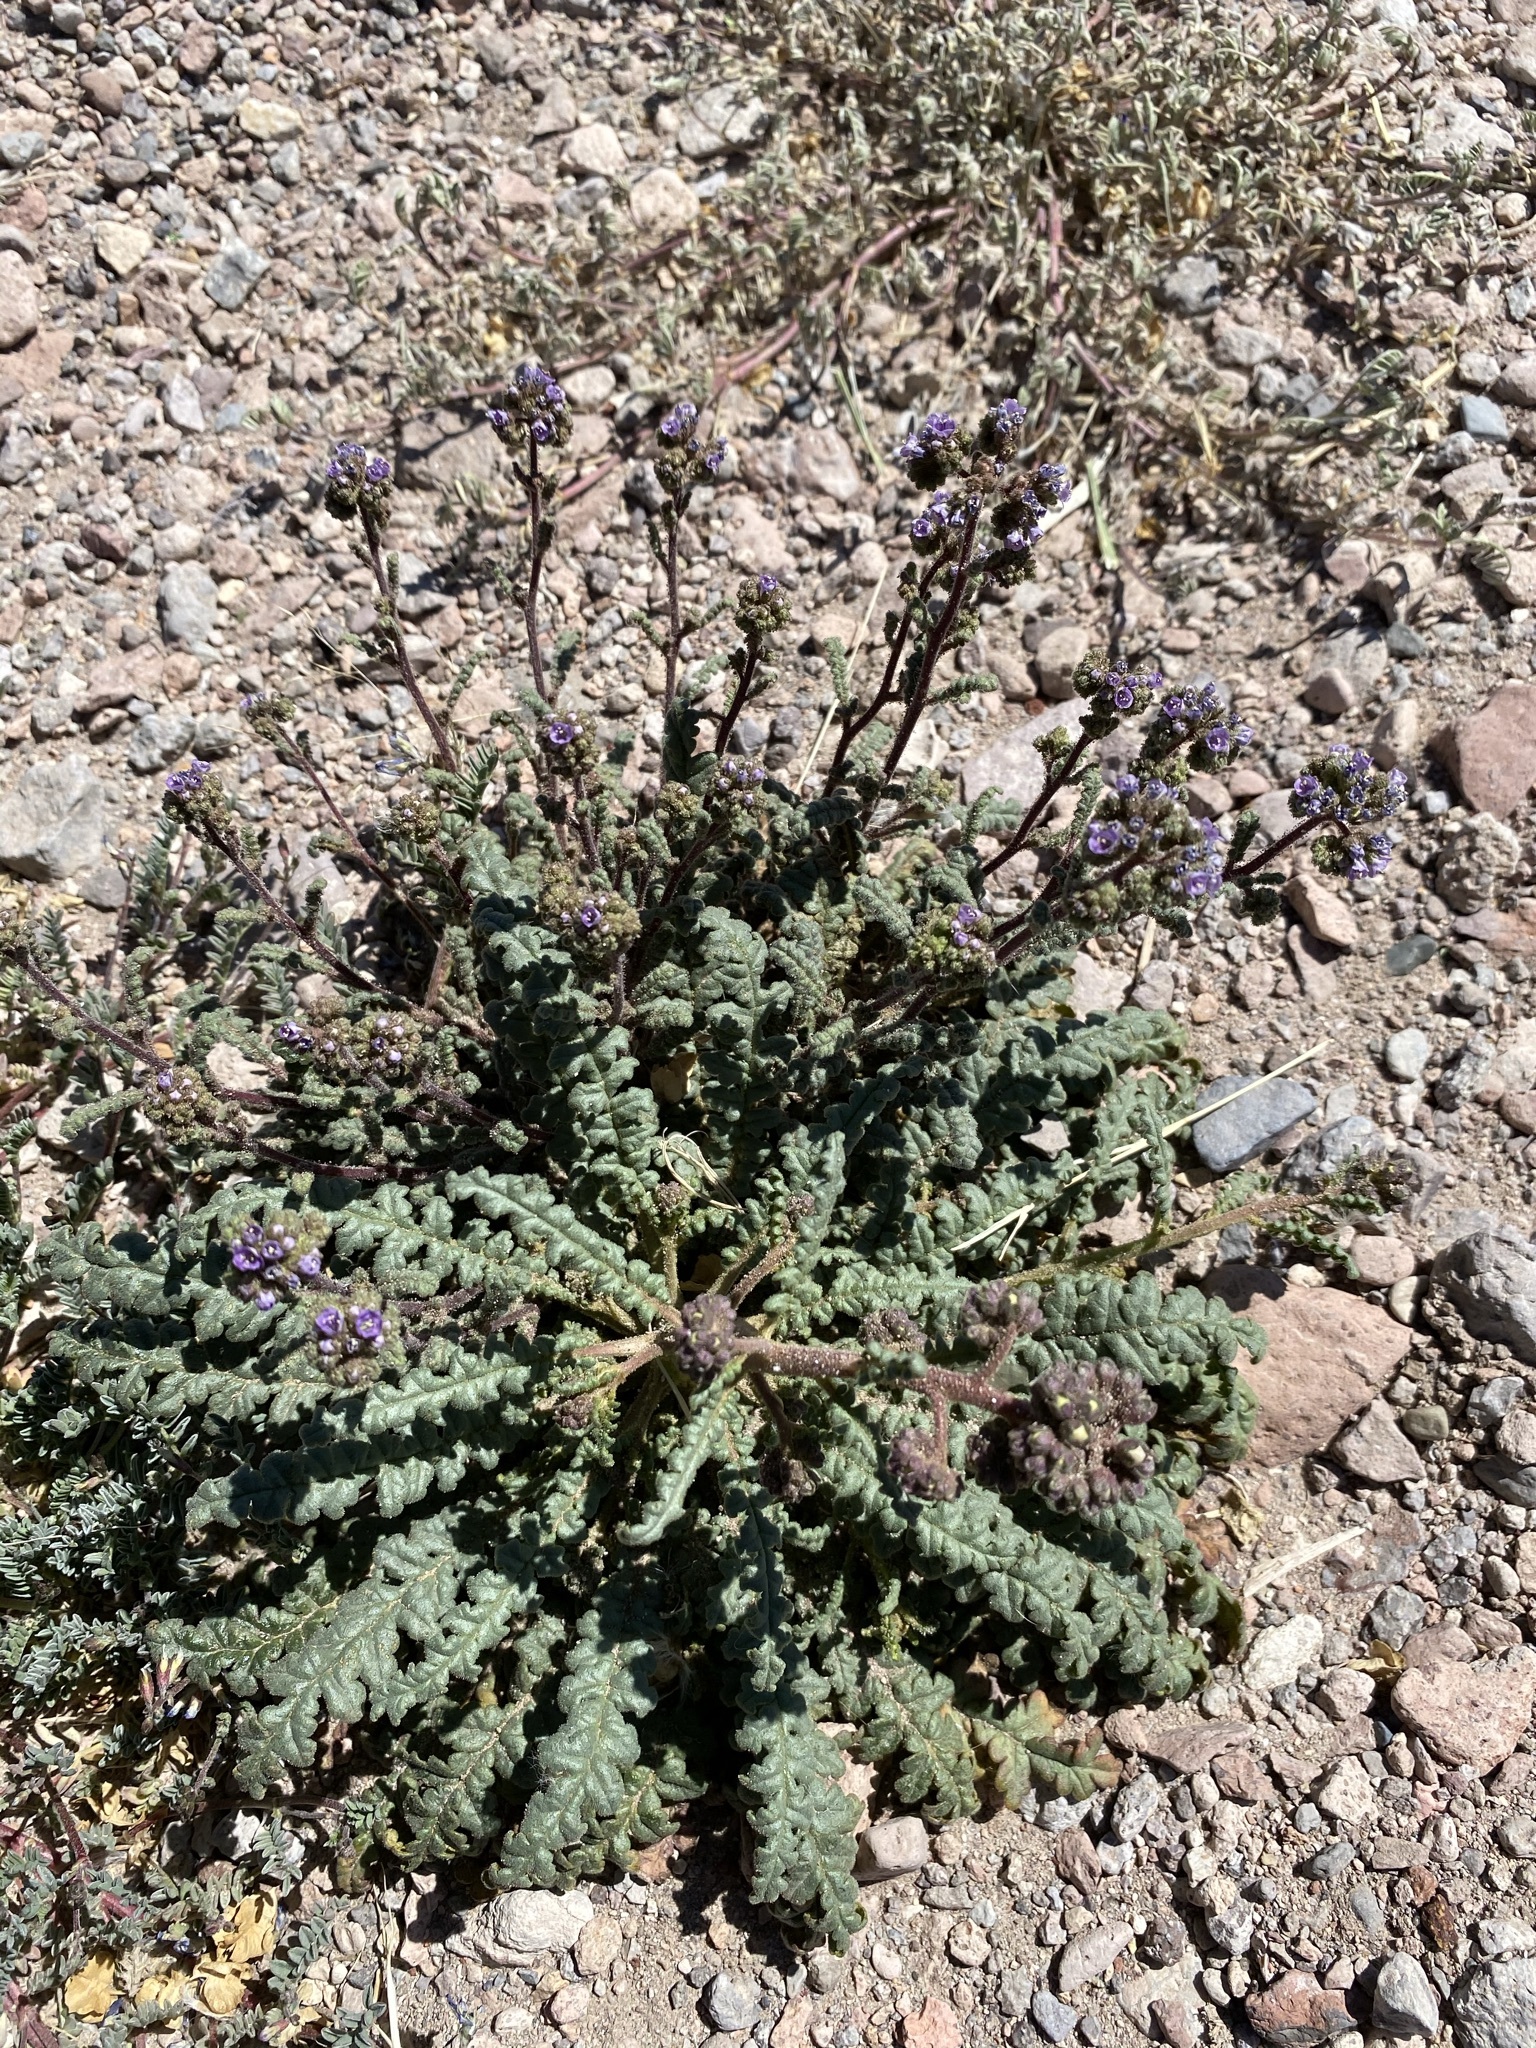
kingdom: Plantae
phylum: Tracheophyta
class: Magnoliopsida
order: Boraginales
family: Hydrophyllaceae
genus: Phacelia
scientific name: Phacelia coerulea
